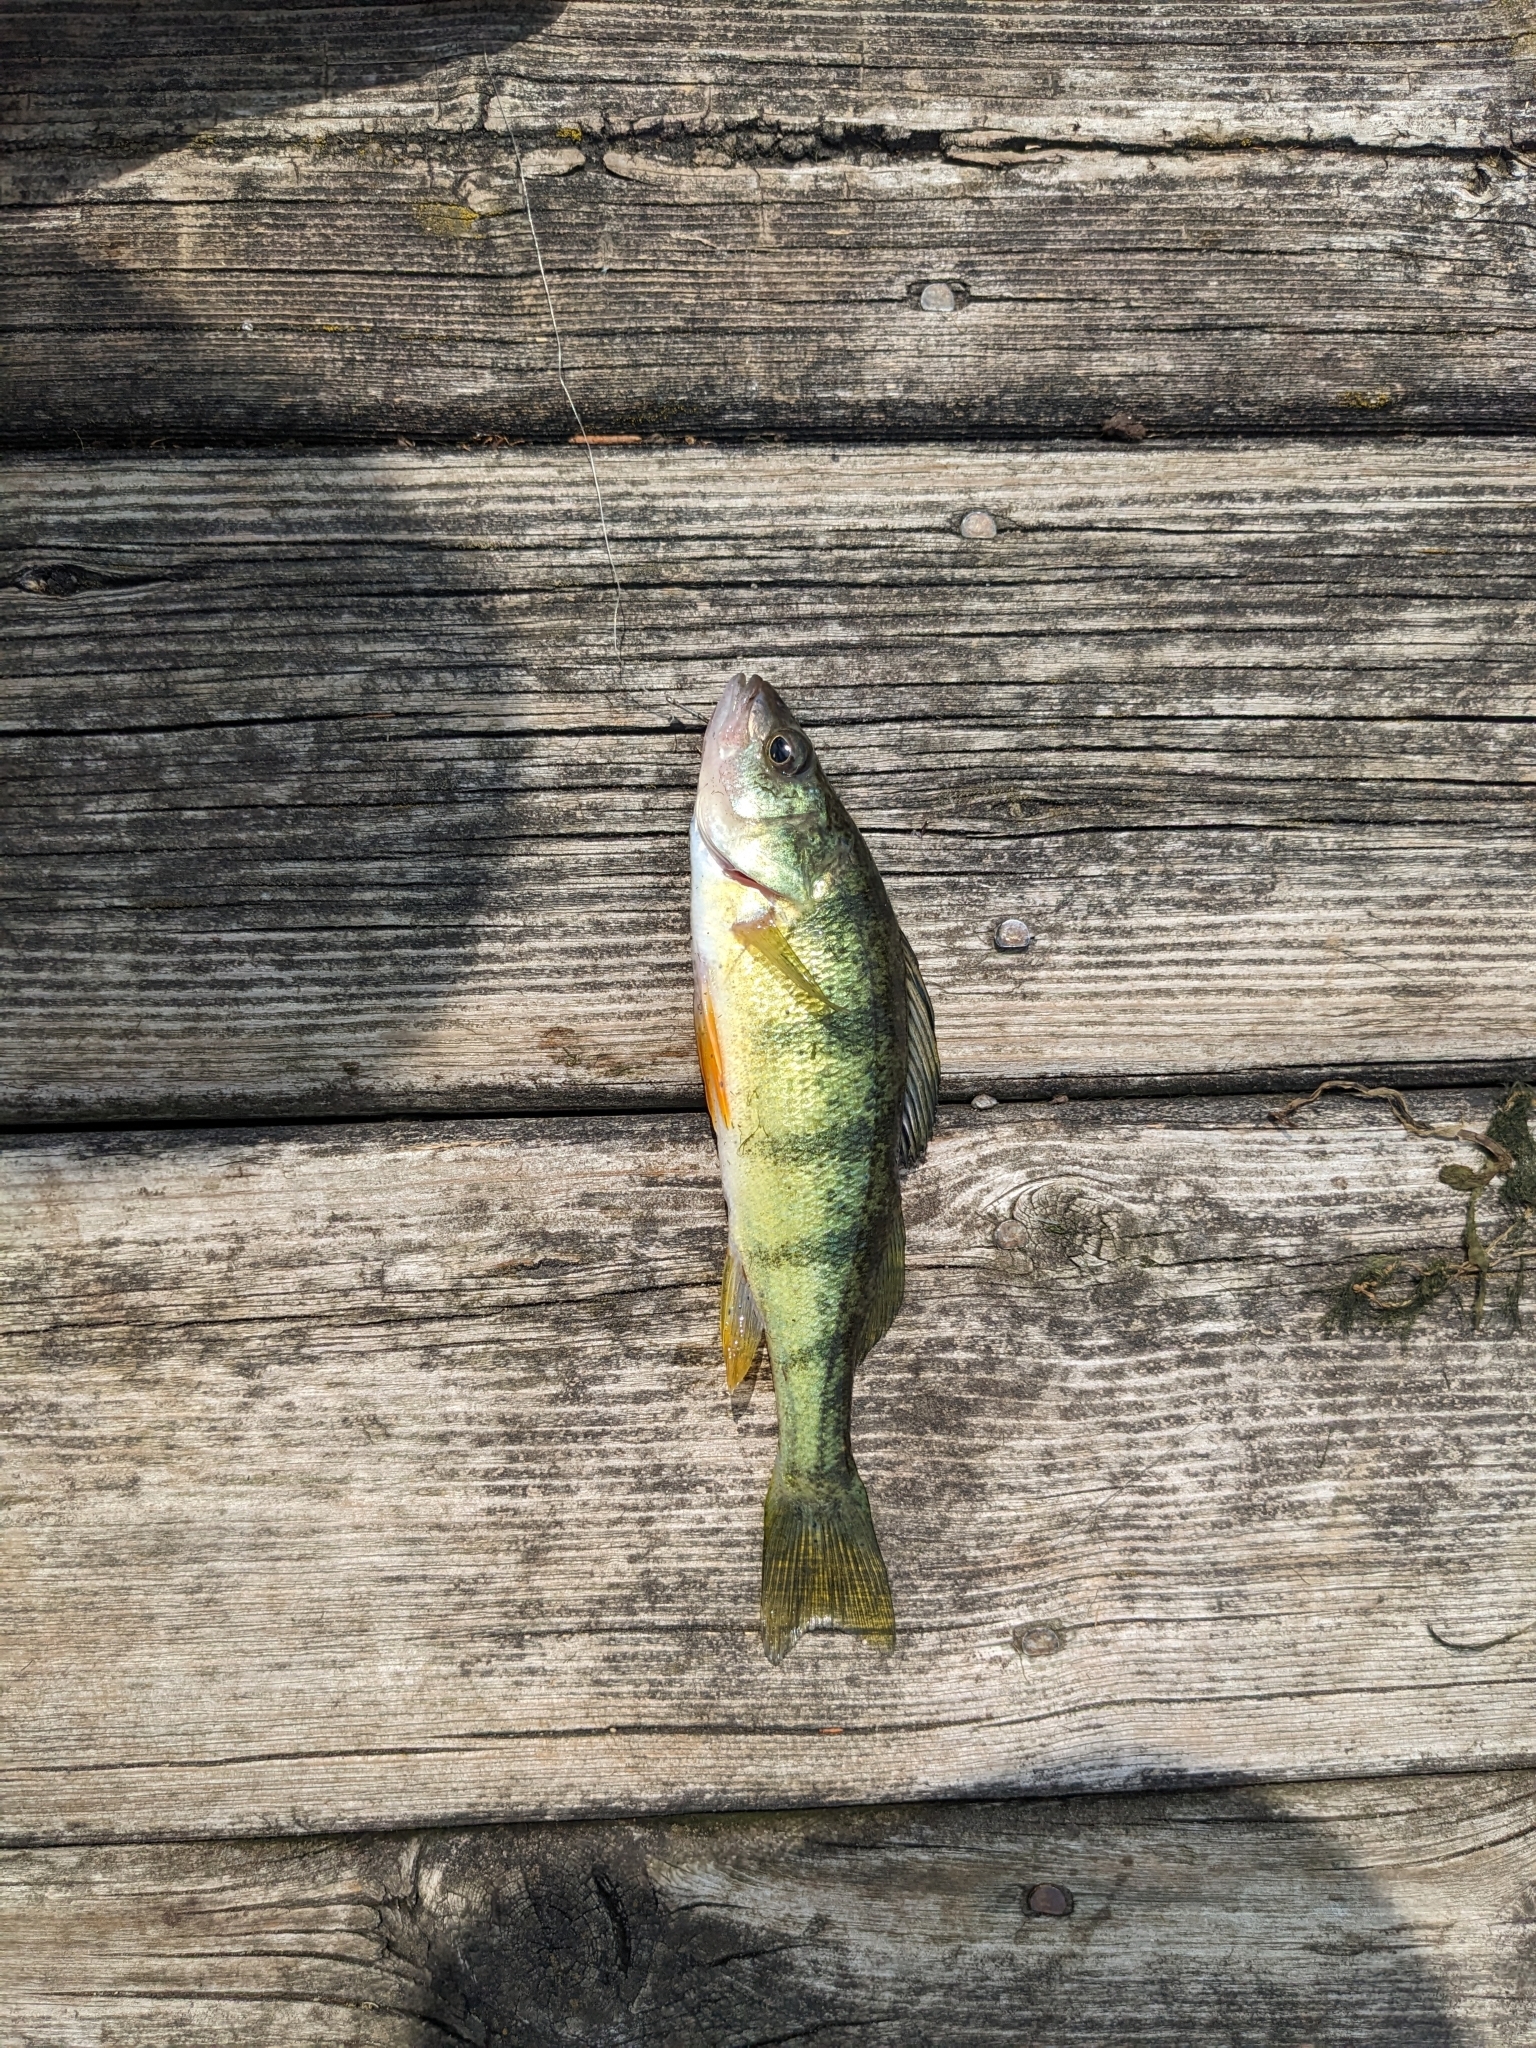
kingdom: Animalia
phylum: Chordata
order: Perciformes
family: Percidae
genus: Perca
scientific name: Perca flavescens
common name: Yellow perch
